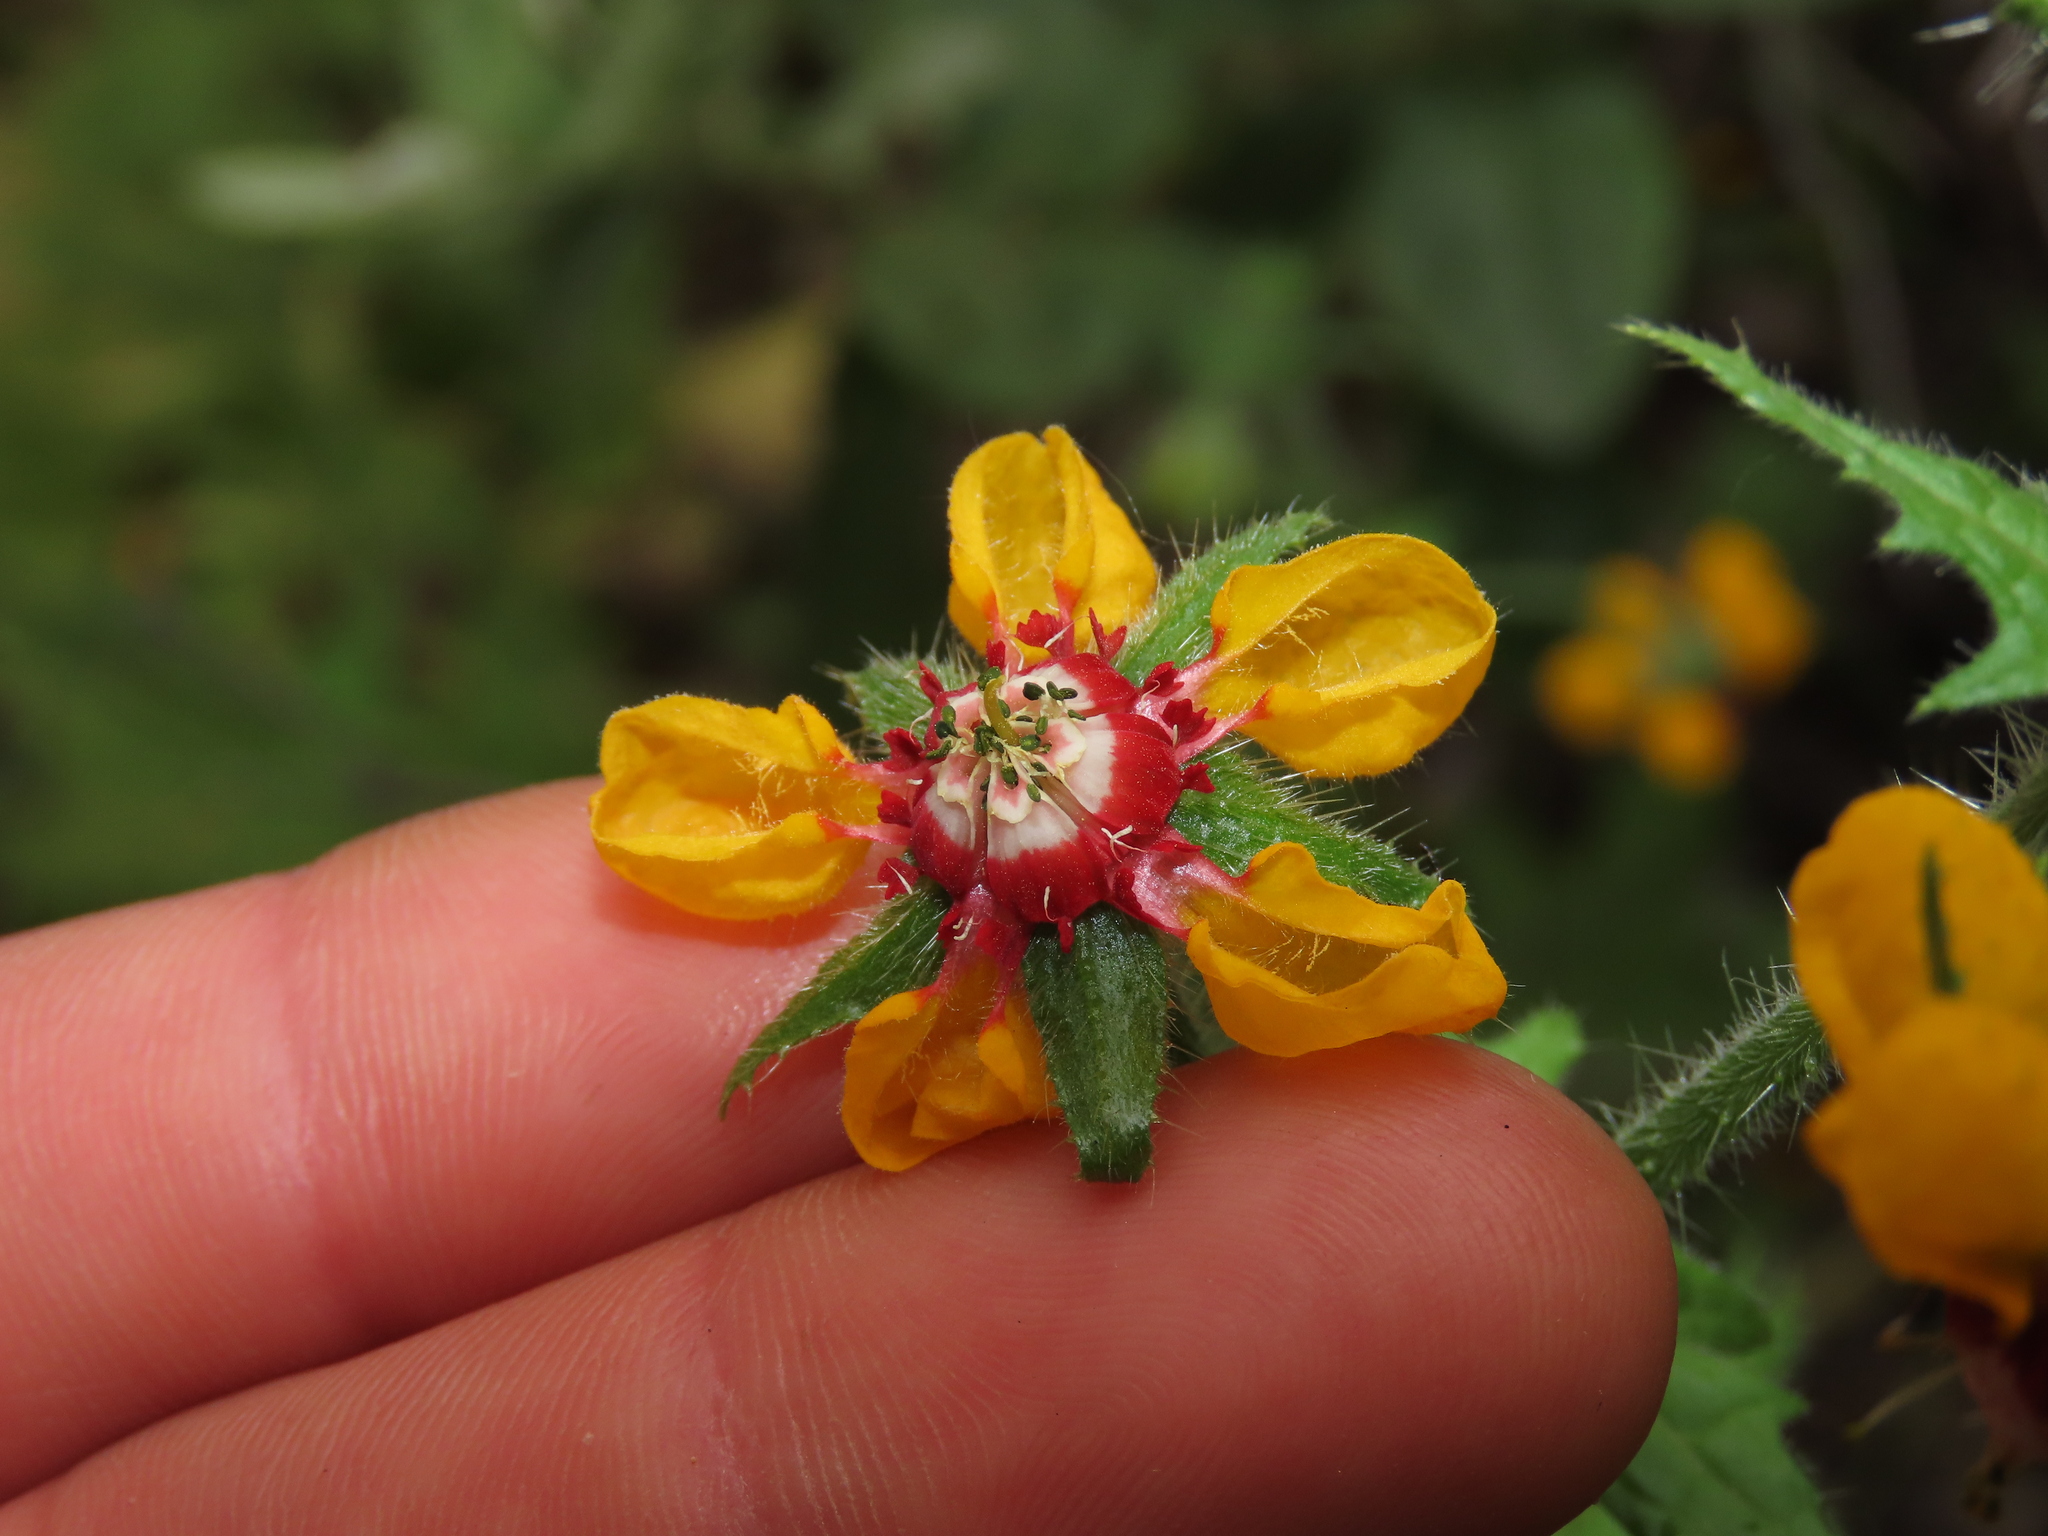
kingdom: Plantae
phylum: Tracheophyta
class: Magnoliopsida
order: Cornales
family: Loasaceae
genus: Loasa
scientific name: Loasa tricolor
